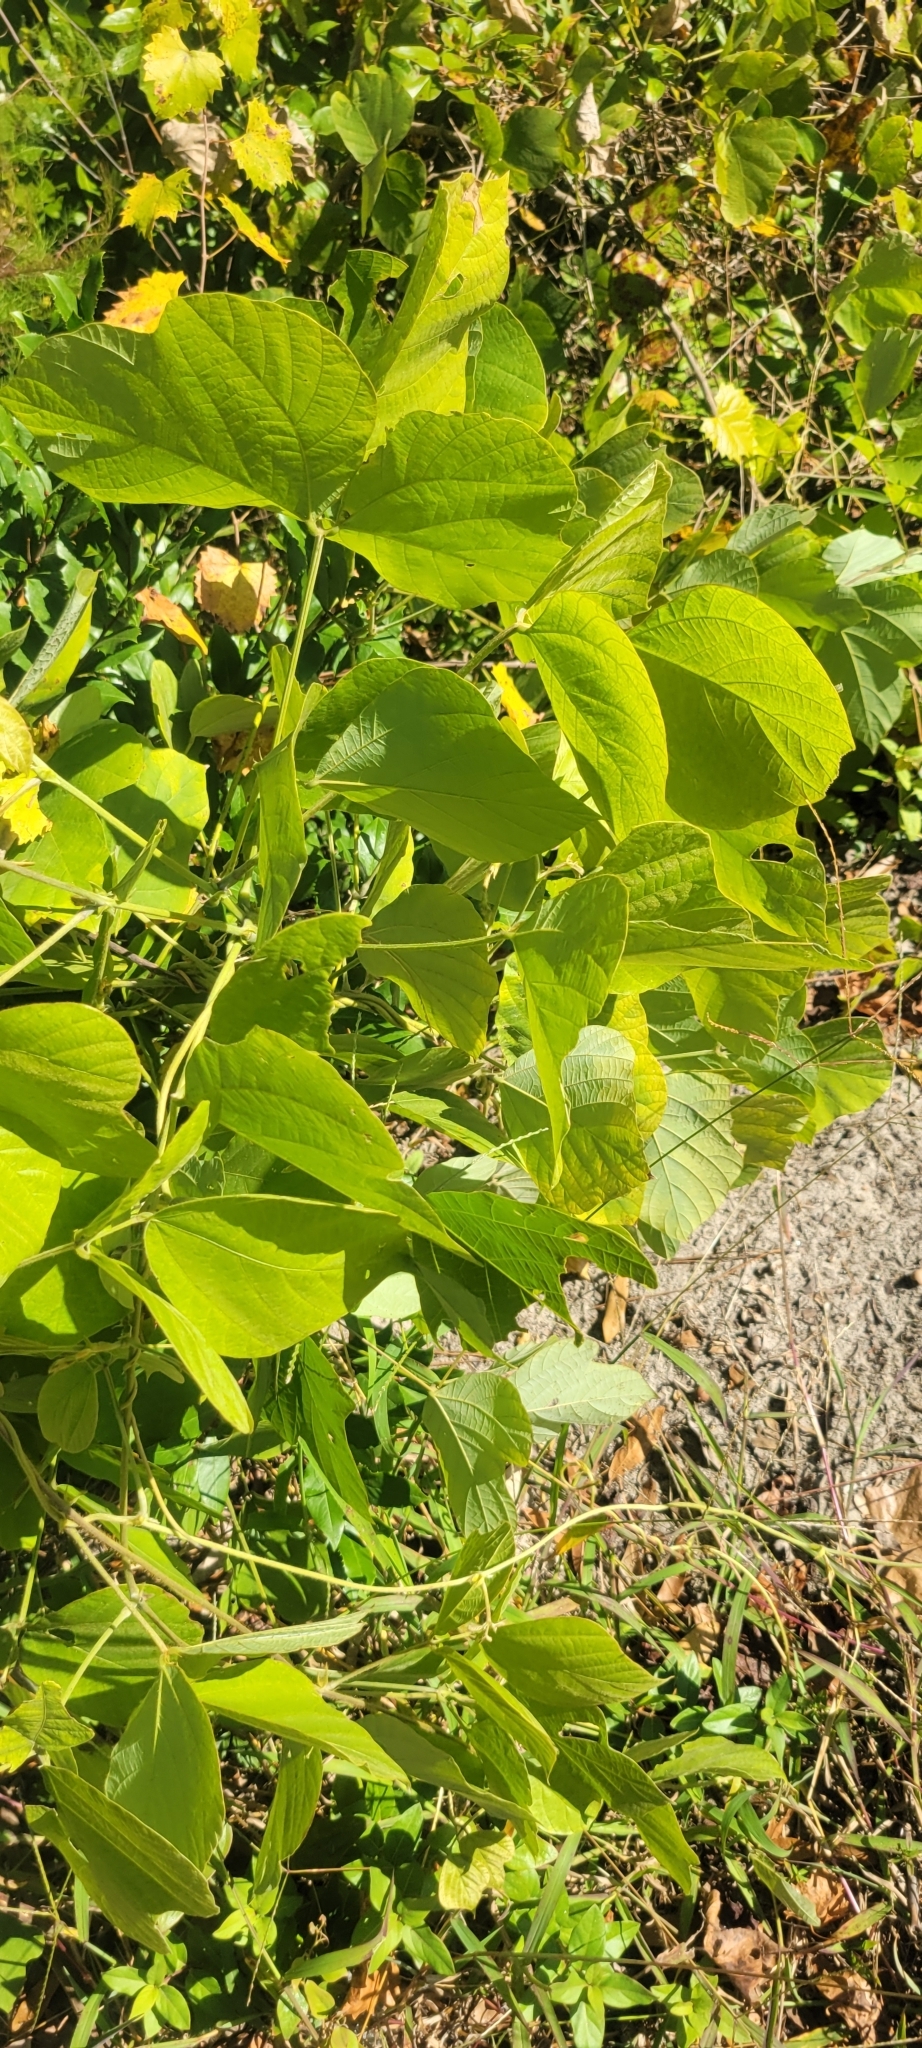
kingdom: Plantae
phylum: Tracheophyta
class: Magnoliopsida
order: Fabales
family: Fabaceae
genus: Pueraria
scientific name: Pueraria montana
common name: Kudzu
